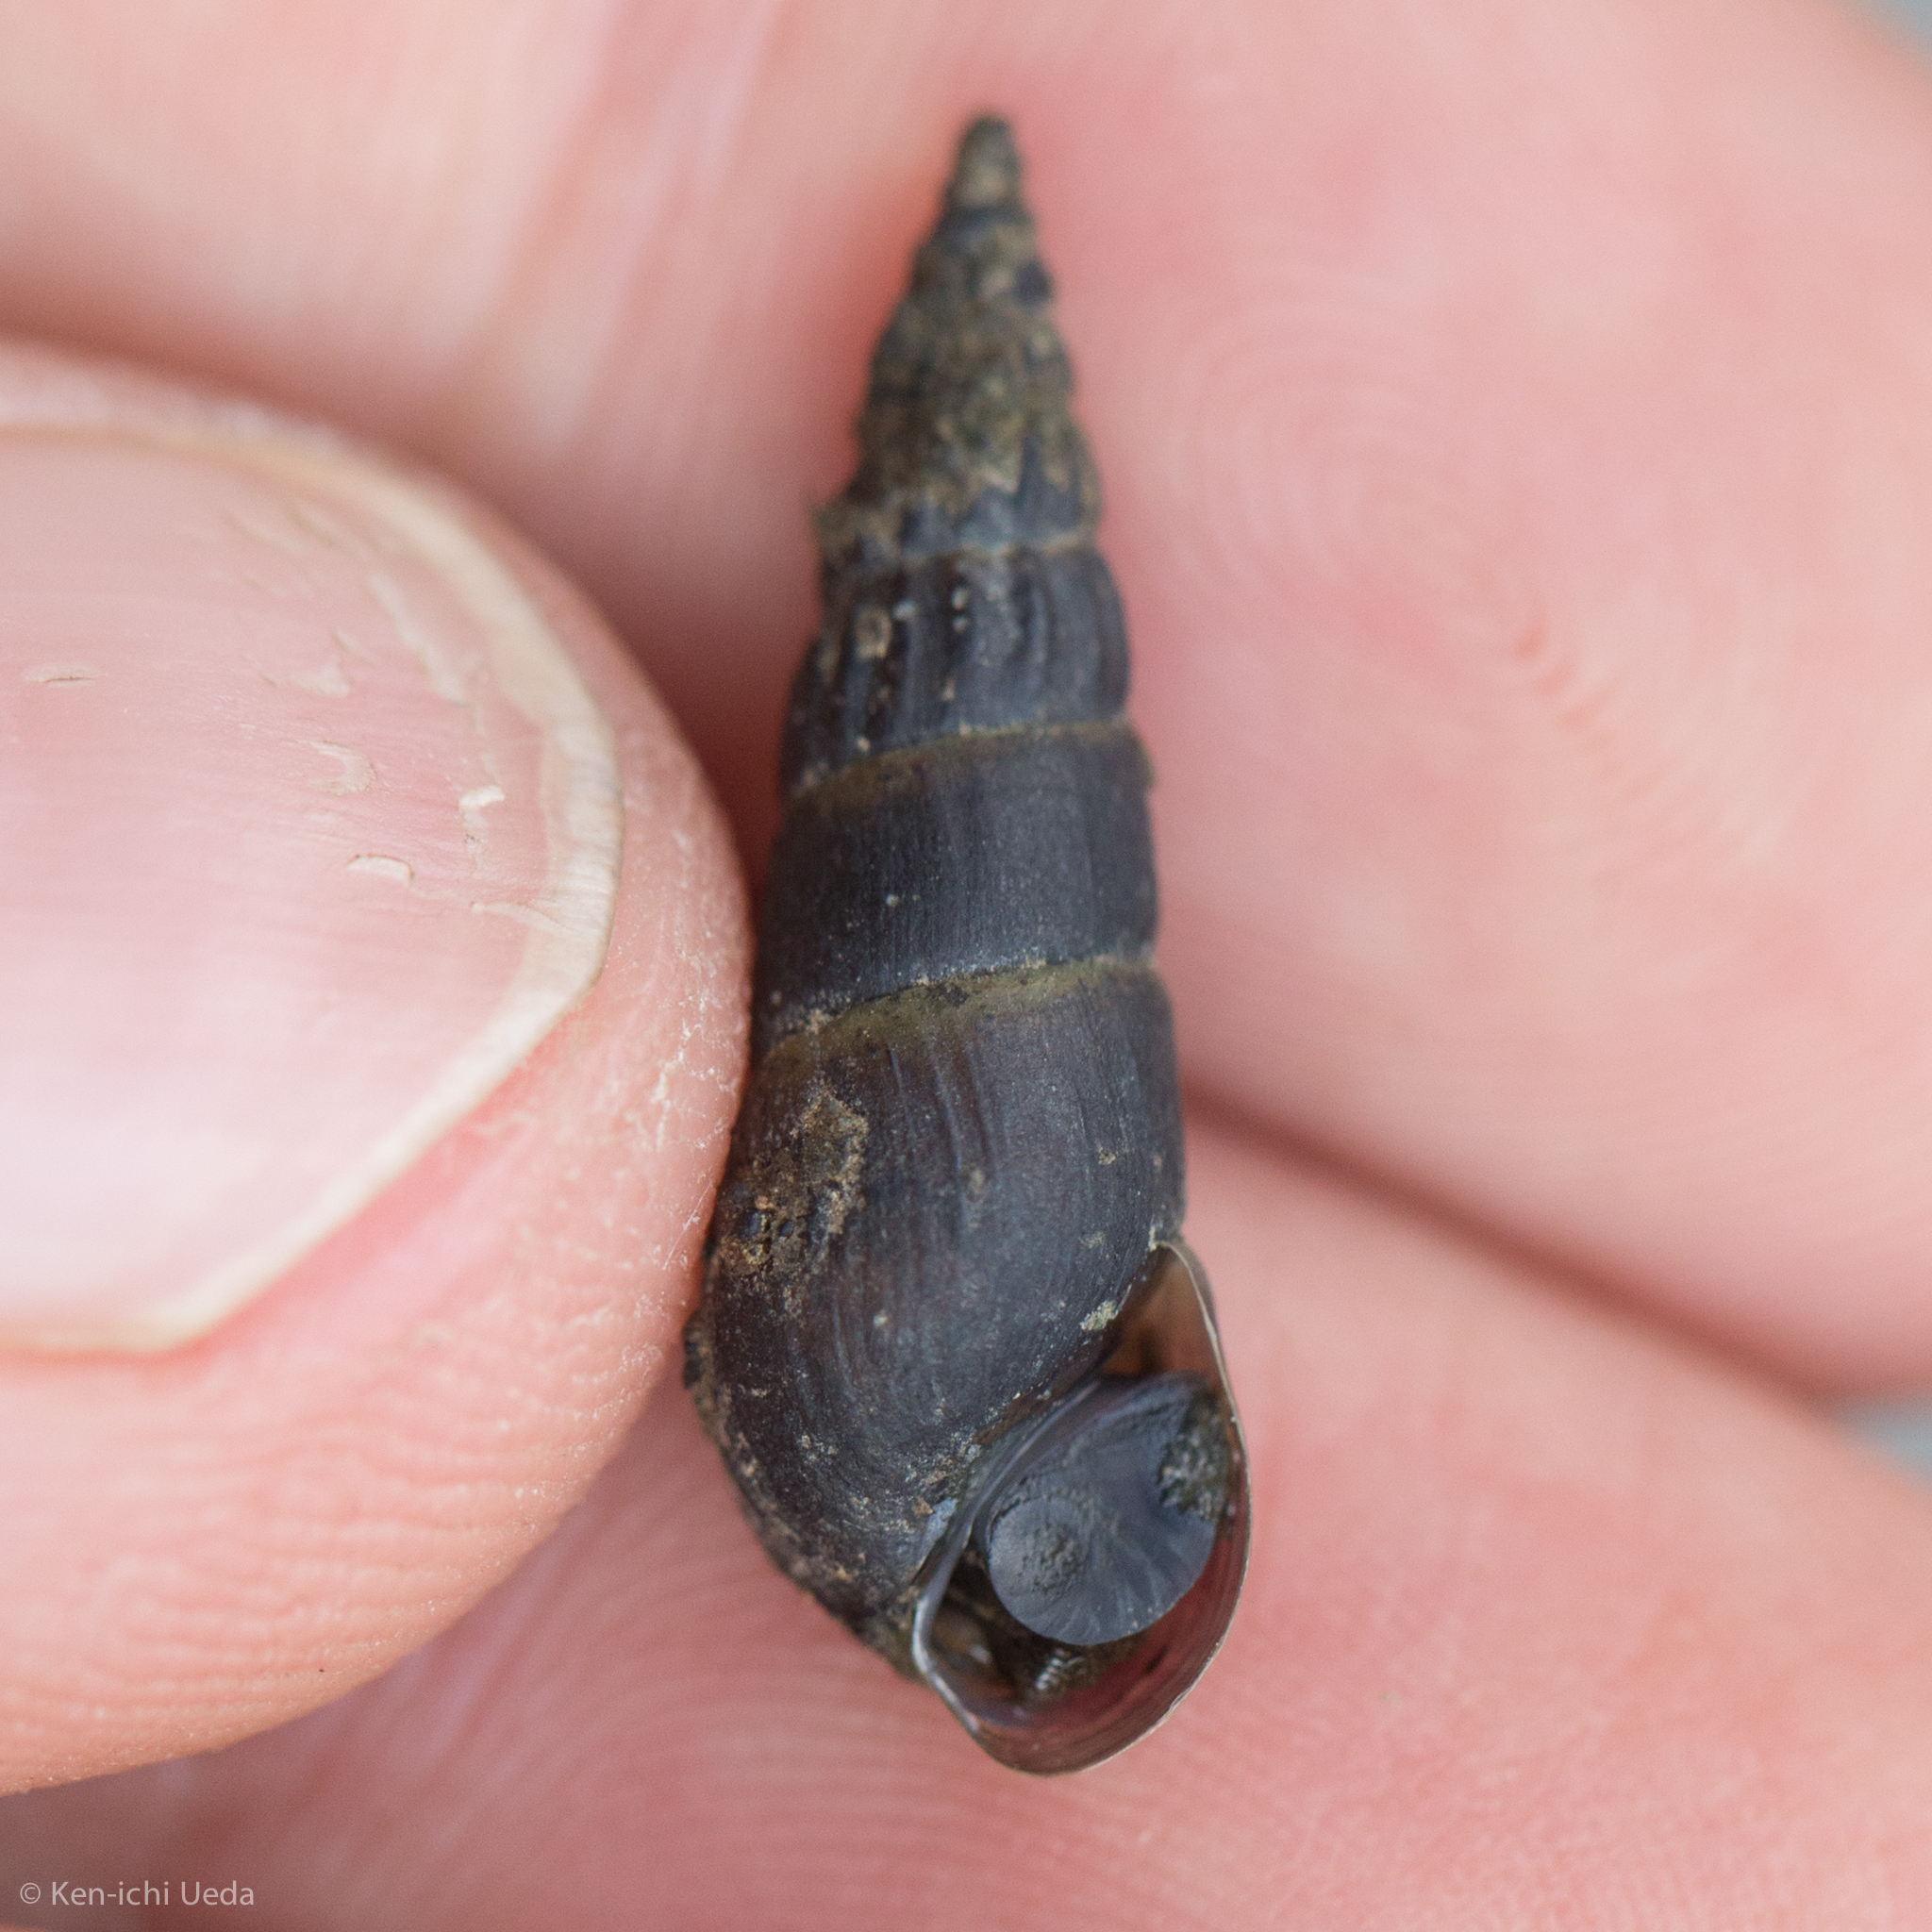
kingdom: Animalia
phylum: Mollusca
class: Gastropoda
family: Pleuroceridae
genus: Elimia
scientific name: Elimia laqueata
